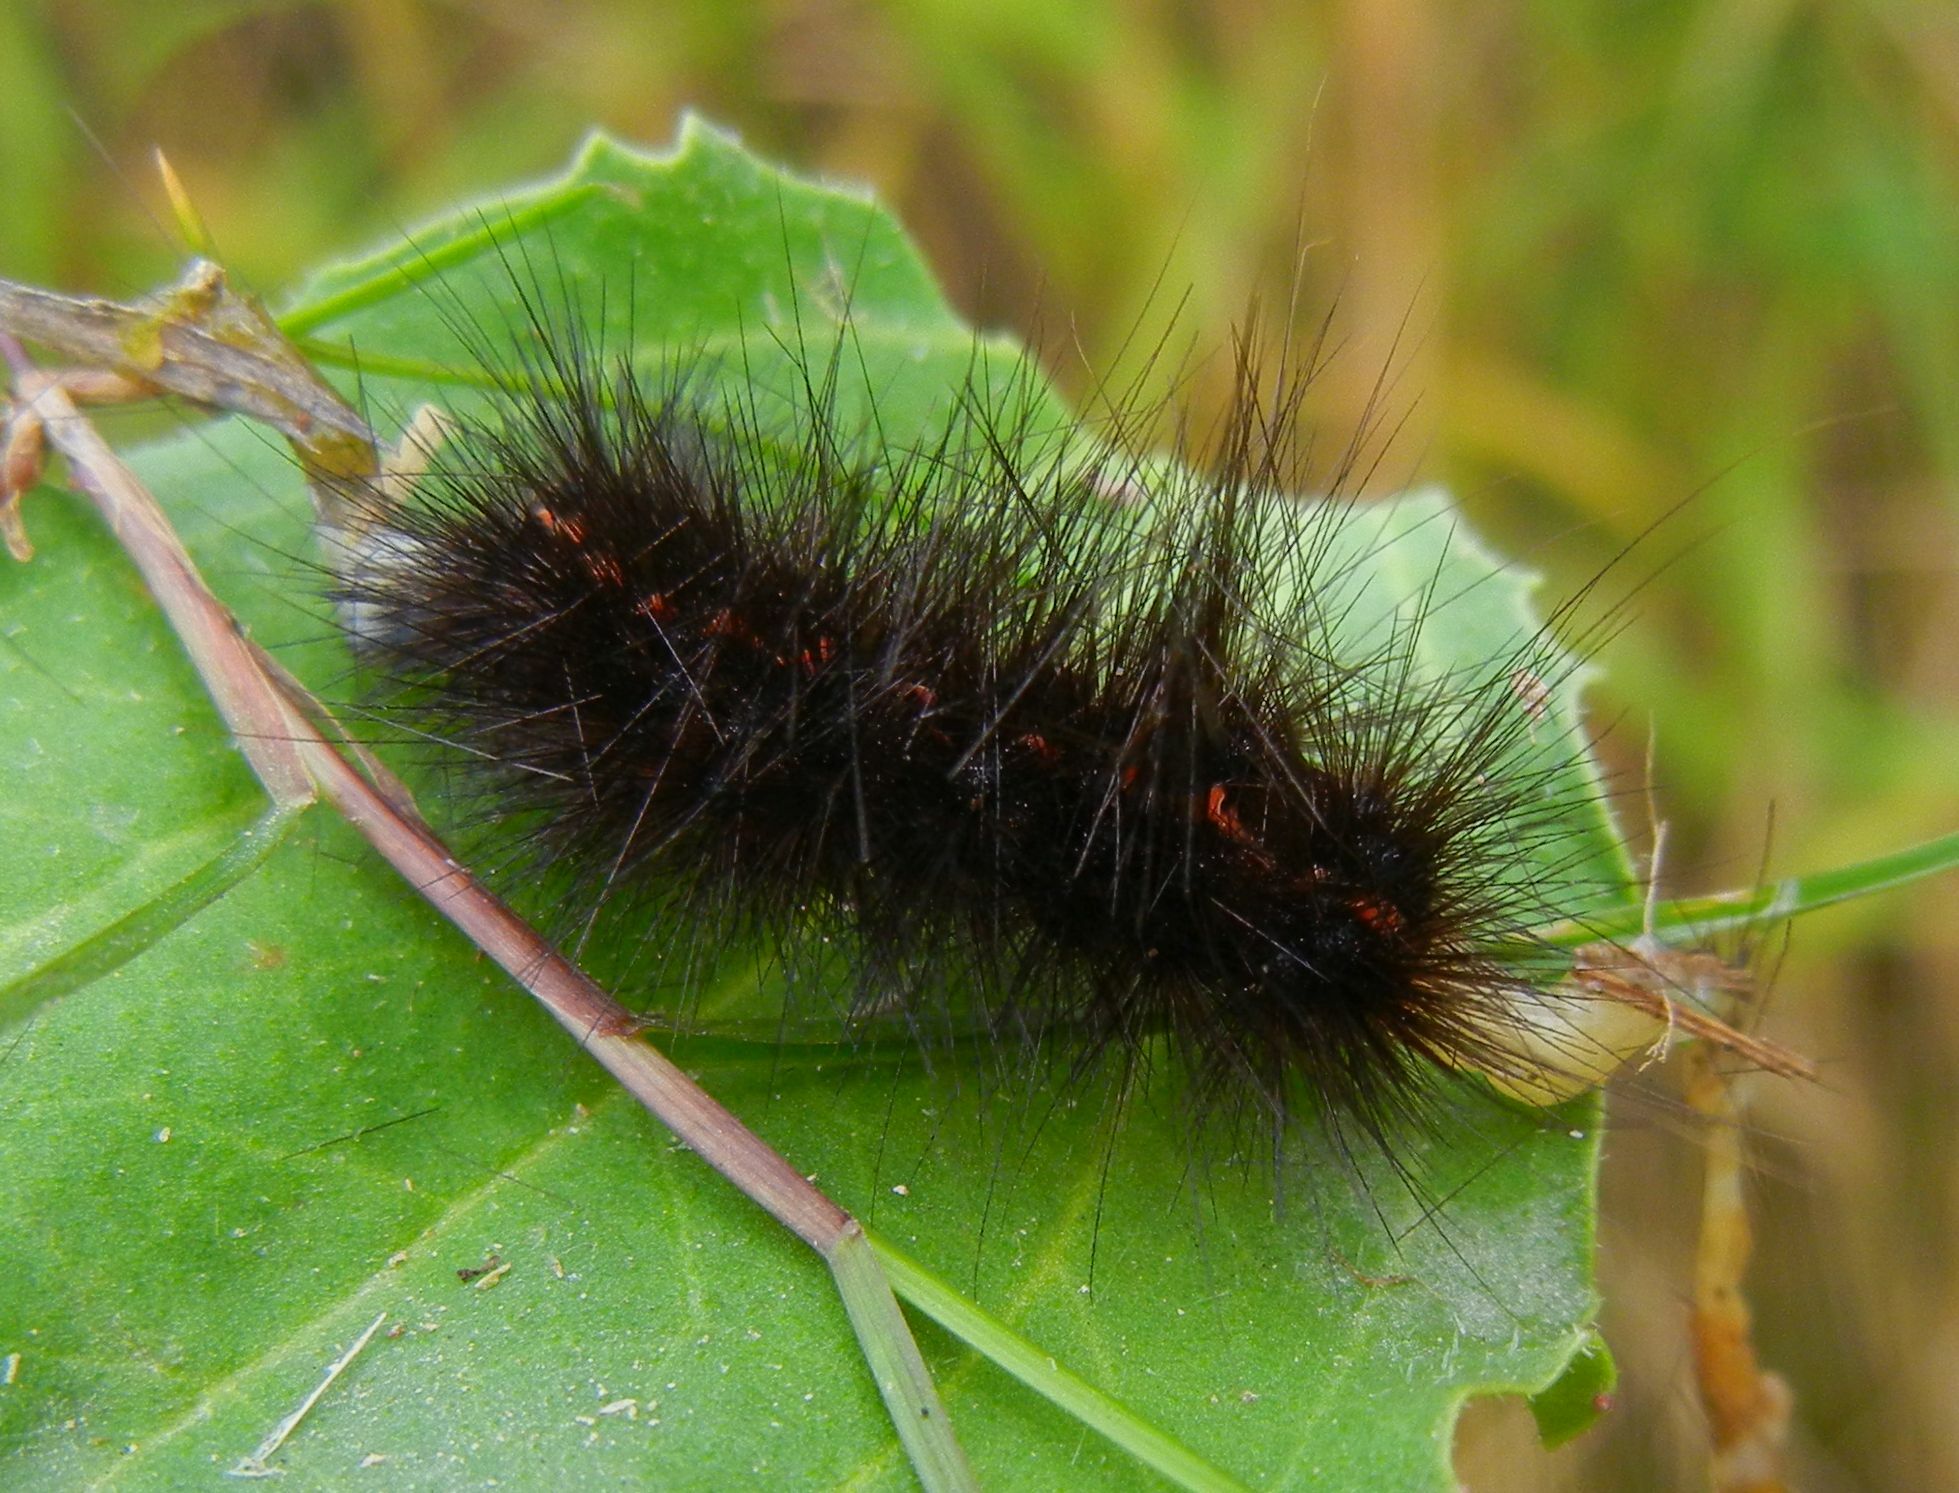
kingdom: Animalia
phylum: Arthropoda
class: Insecta
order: Lepidoptera
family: Erebidae
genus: Spilosoma
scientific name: Spilosoma lubricipeda
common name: White ermine
